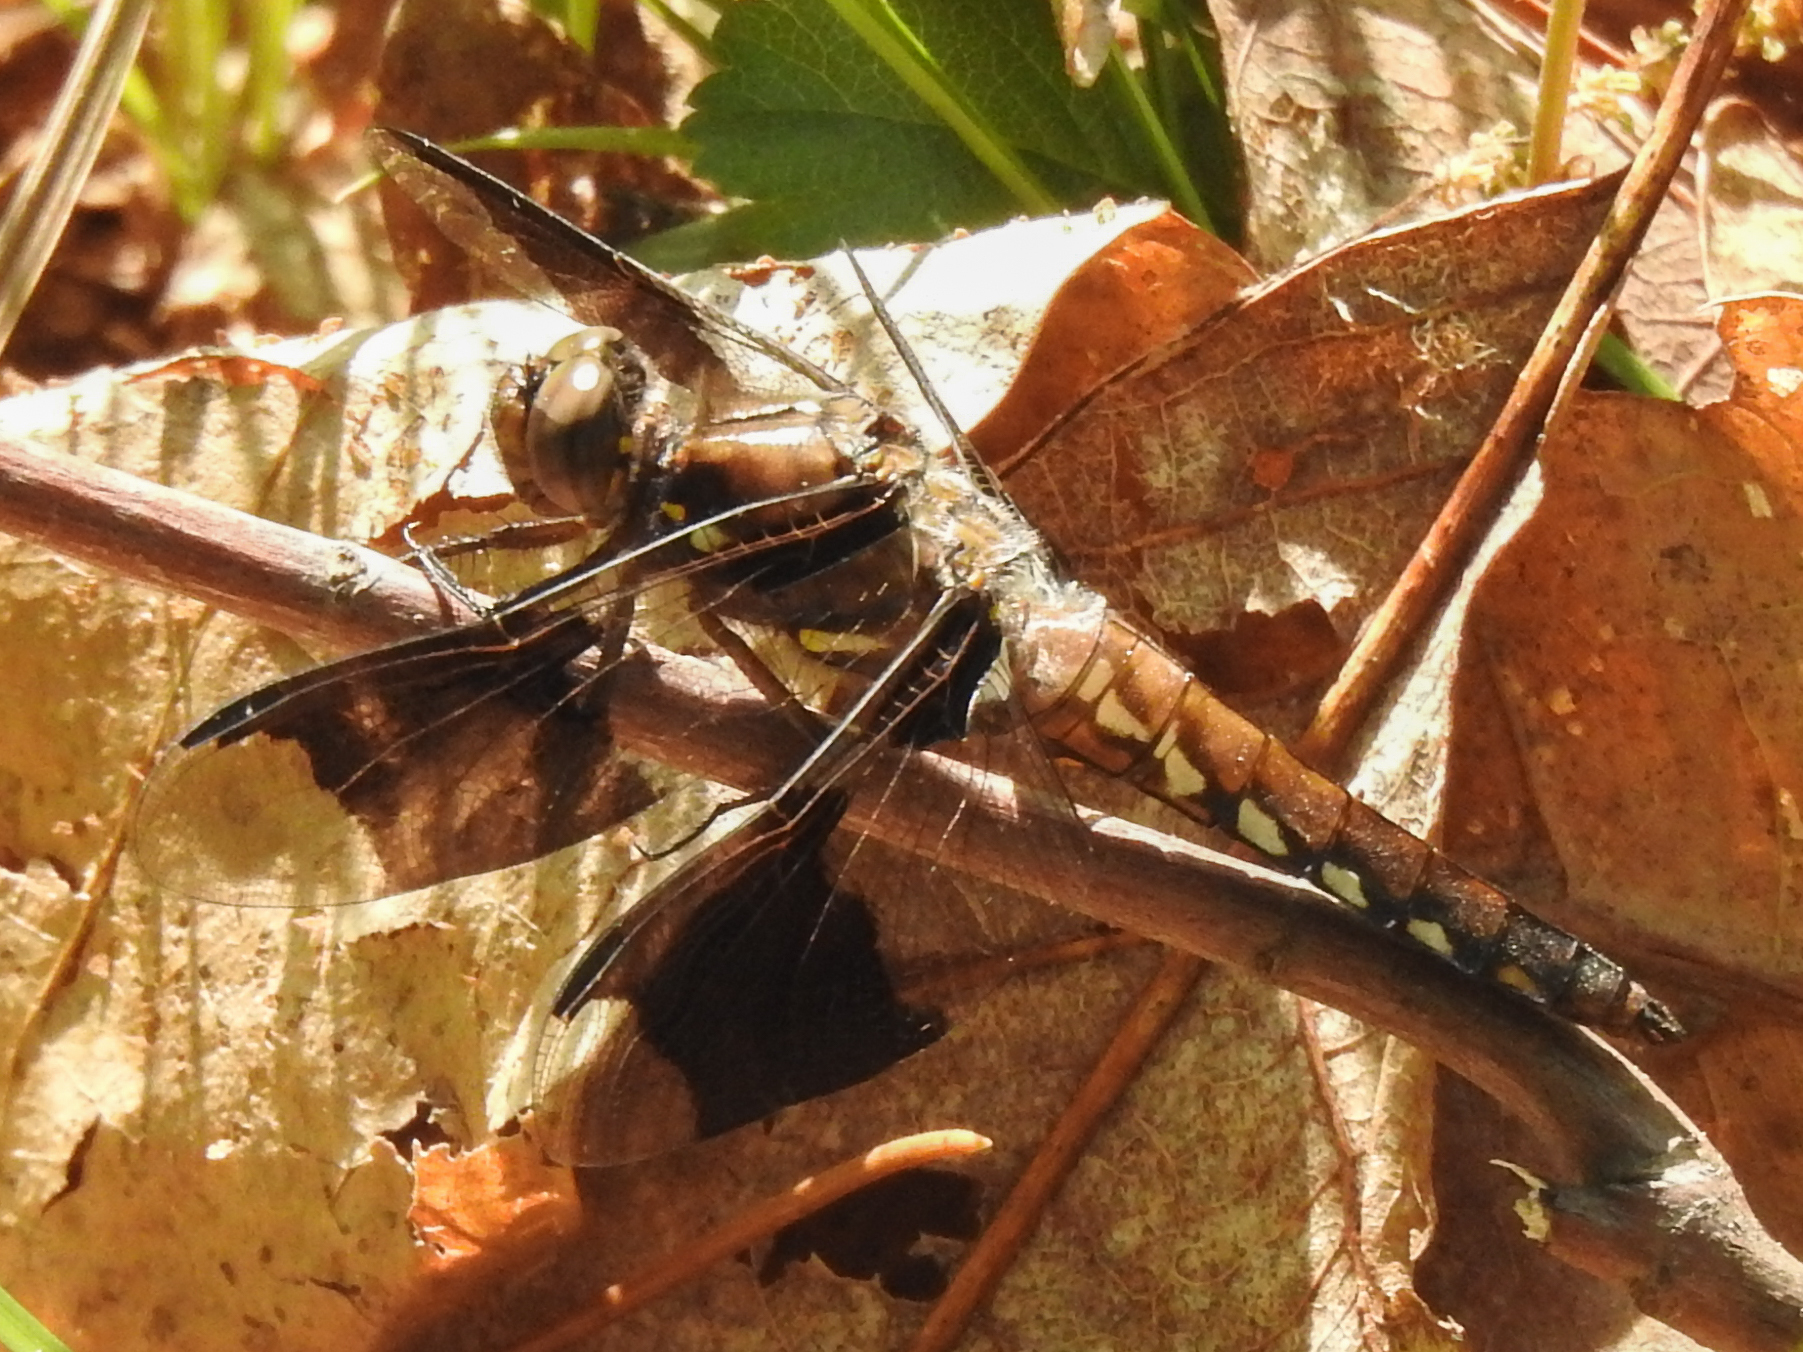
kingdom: Animalia
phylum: Arthropoda
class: Insecta
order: Odonata
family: Libellulidae
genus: Plathemis
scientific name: Plathemis lydia
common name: Common whitetail
